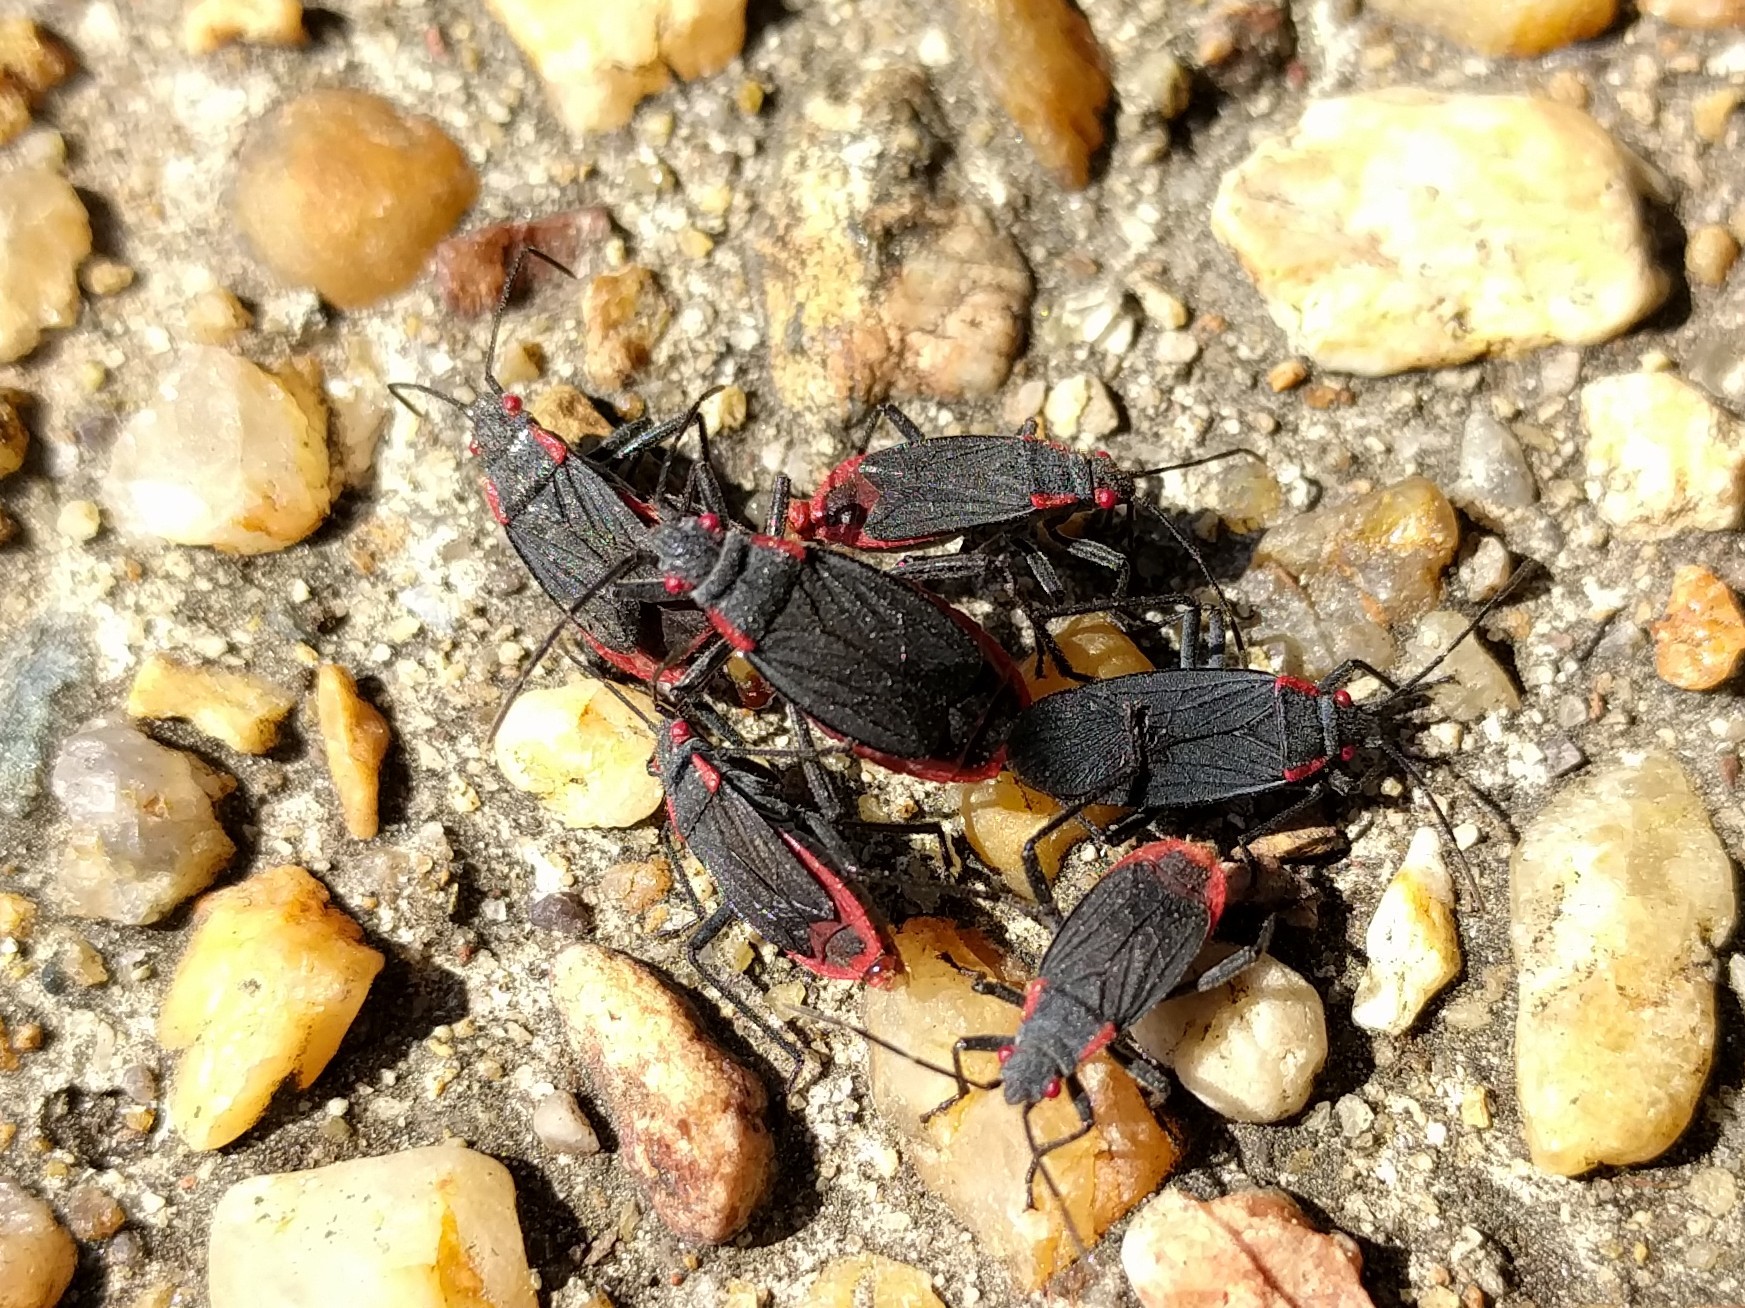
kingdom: Animalia
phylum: Arthropoda
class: Insecta
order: Hemiptera
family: Rhopalidae
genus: Jadera
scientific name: Jadera haematoloma
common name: Red-shouldered bug
